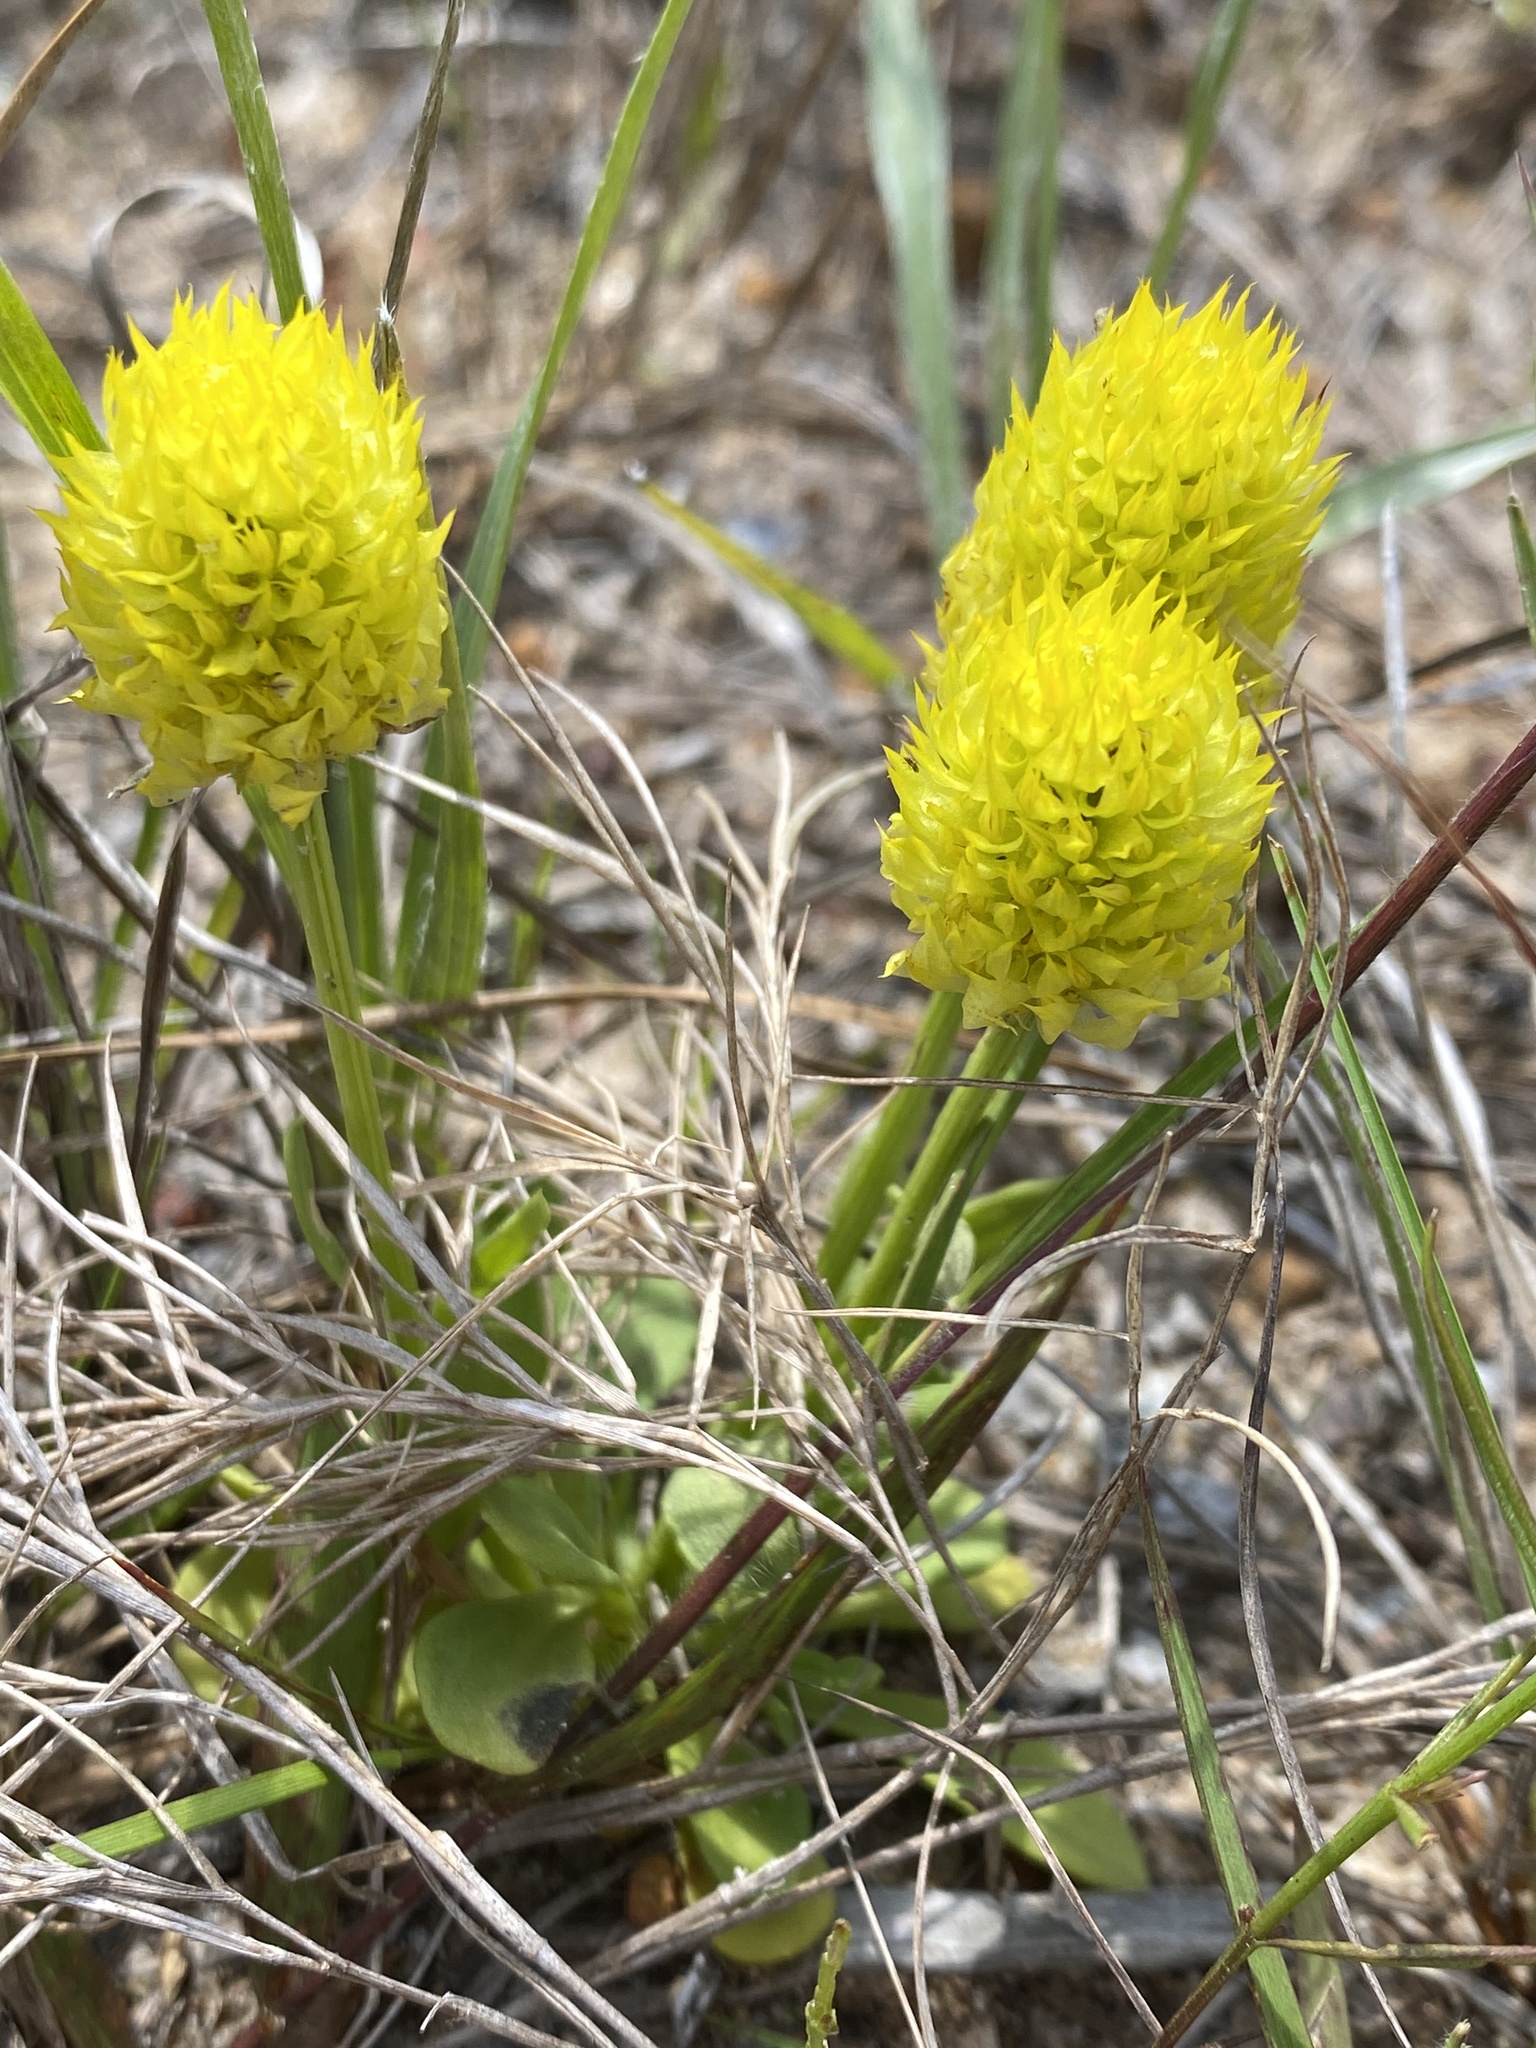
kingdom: Plantae
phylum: Tracheophyta
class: Magnoliopsida
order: Fabales
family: Polygalaceae
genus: Polygala
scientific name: Polygala nana
